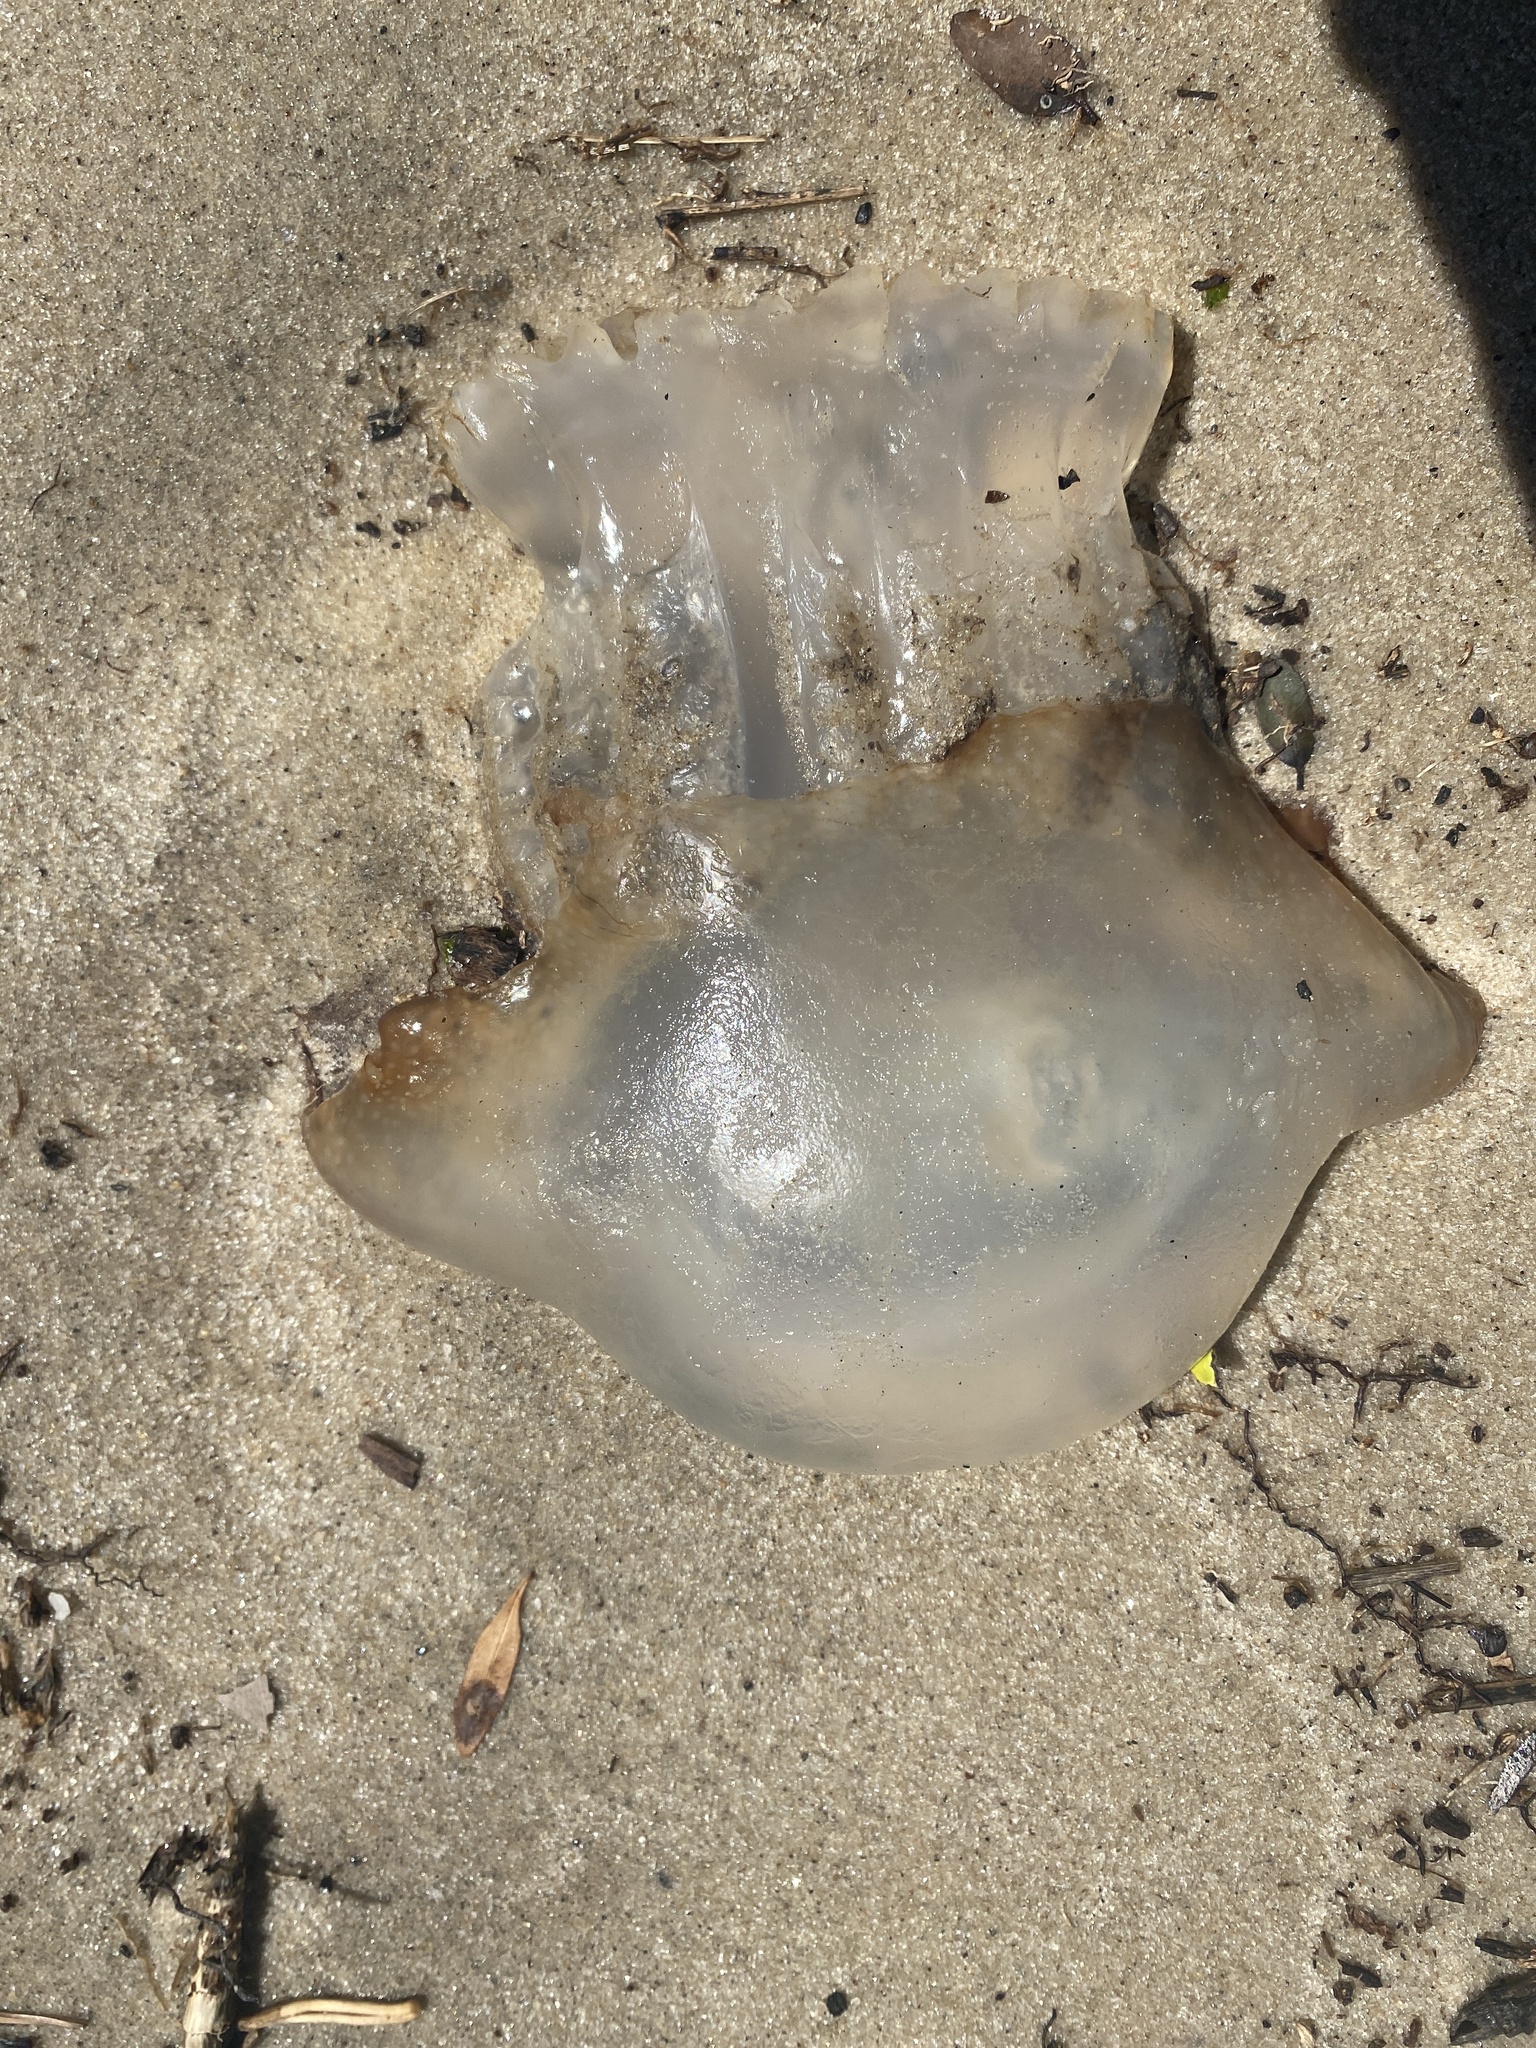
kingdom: Animalia
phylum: Cnidaria
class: Scyphozoa
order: Rhizostomeae
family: Stomolophidae
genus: Stomolophus
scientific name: Stomolophus meleagris
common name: Cabbagehead
